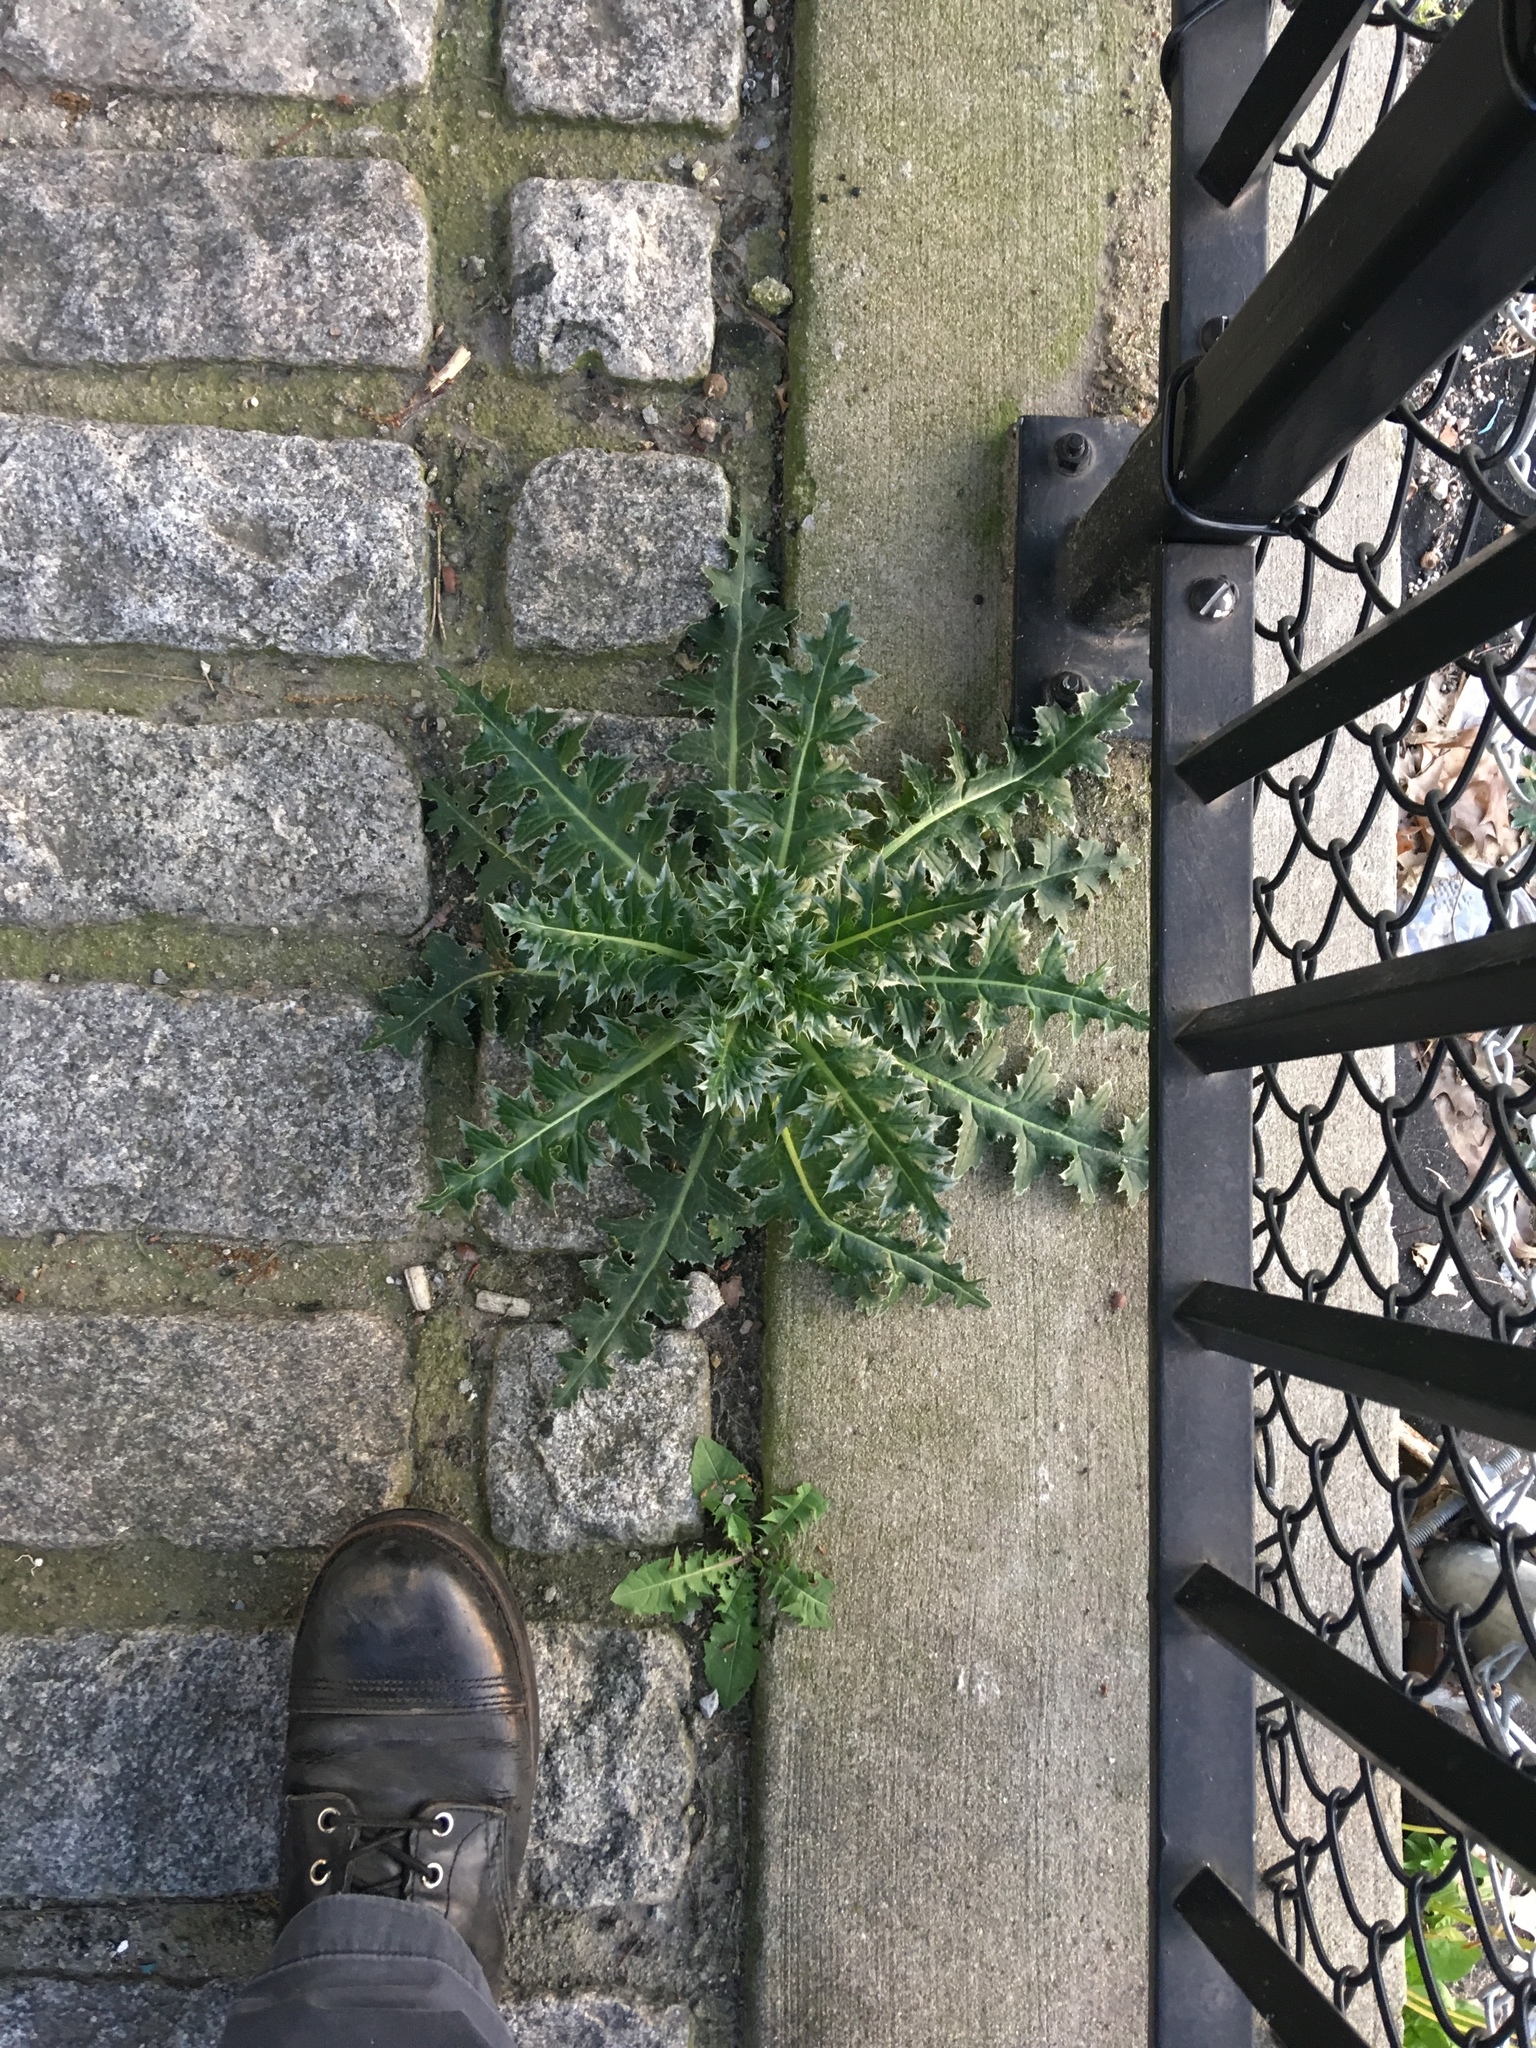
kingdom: Plantae
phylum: Tracheophyta
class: Magnoliopsida
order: Asterales
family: Asteraceae
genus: Cirsium
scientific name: Cirsium vulgare
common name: Bull thistle
